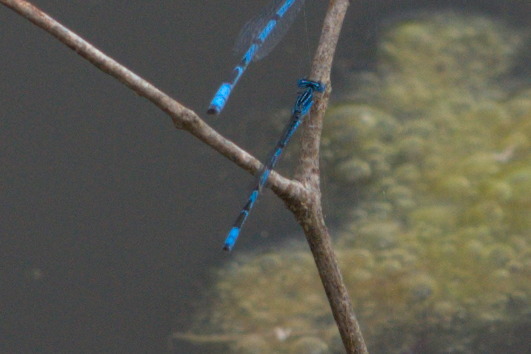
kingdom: Animalia
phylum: Arthropoda
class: Insecta
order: Odonata
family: Coenagrionidae
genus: Enallagma
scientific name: Enallagma basidens
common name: Double-striped bluet
